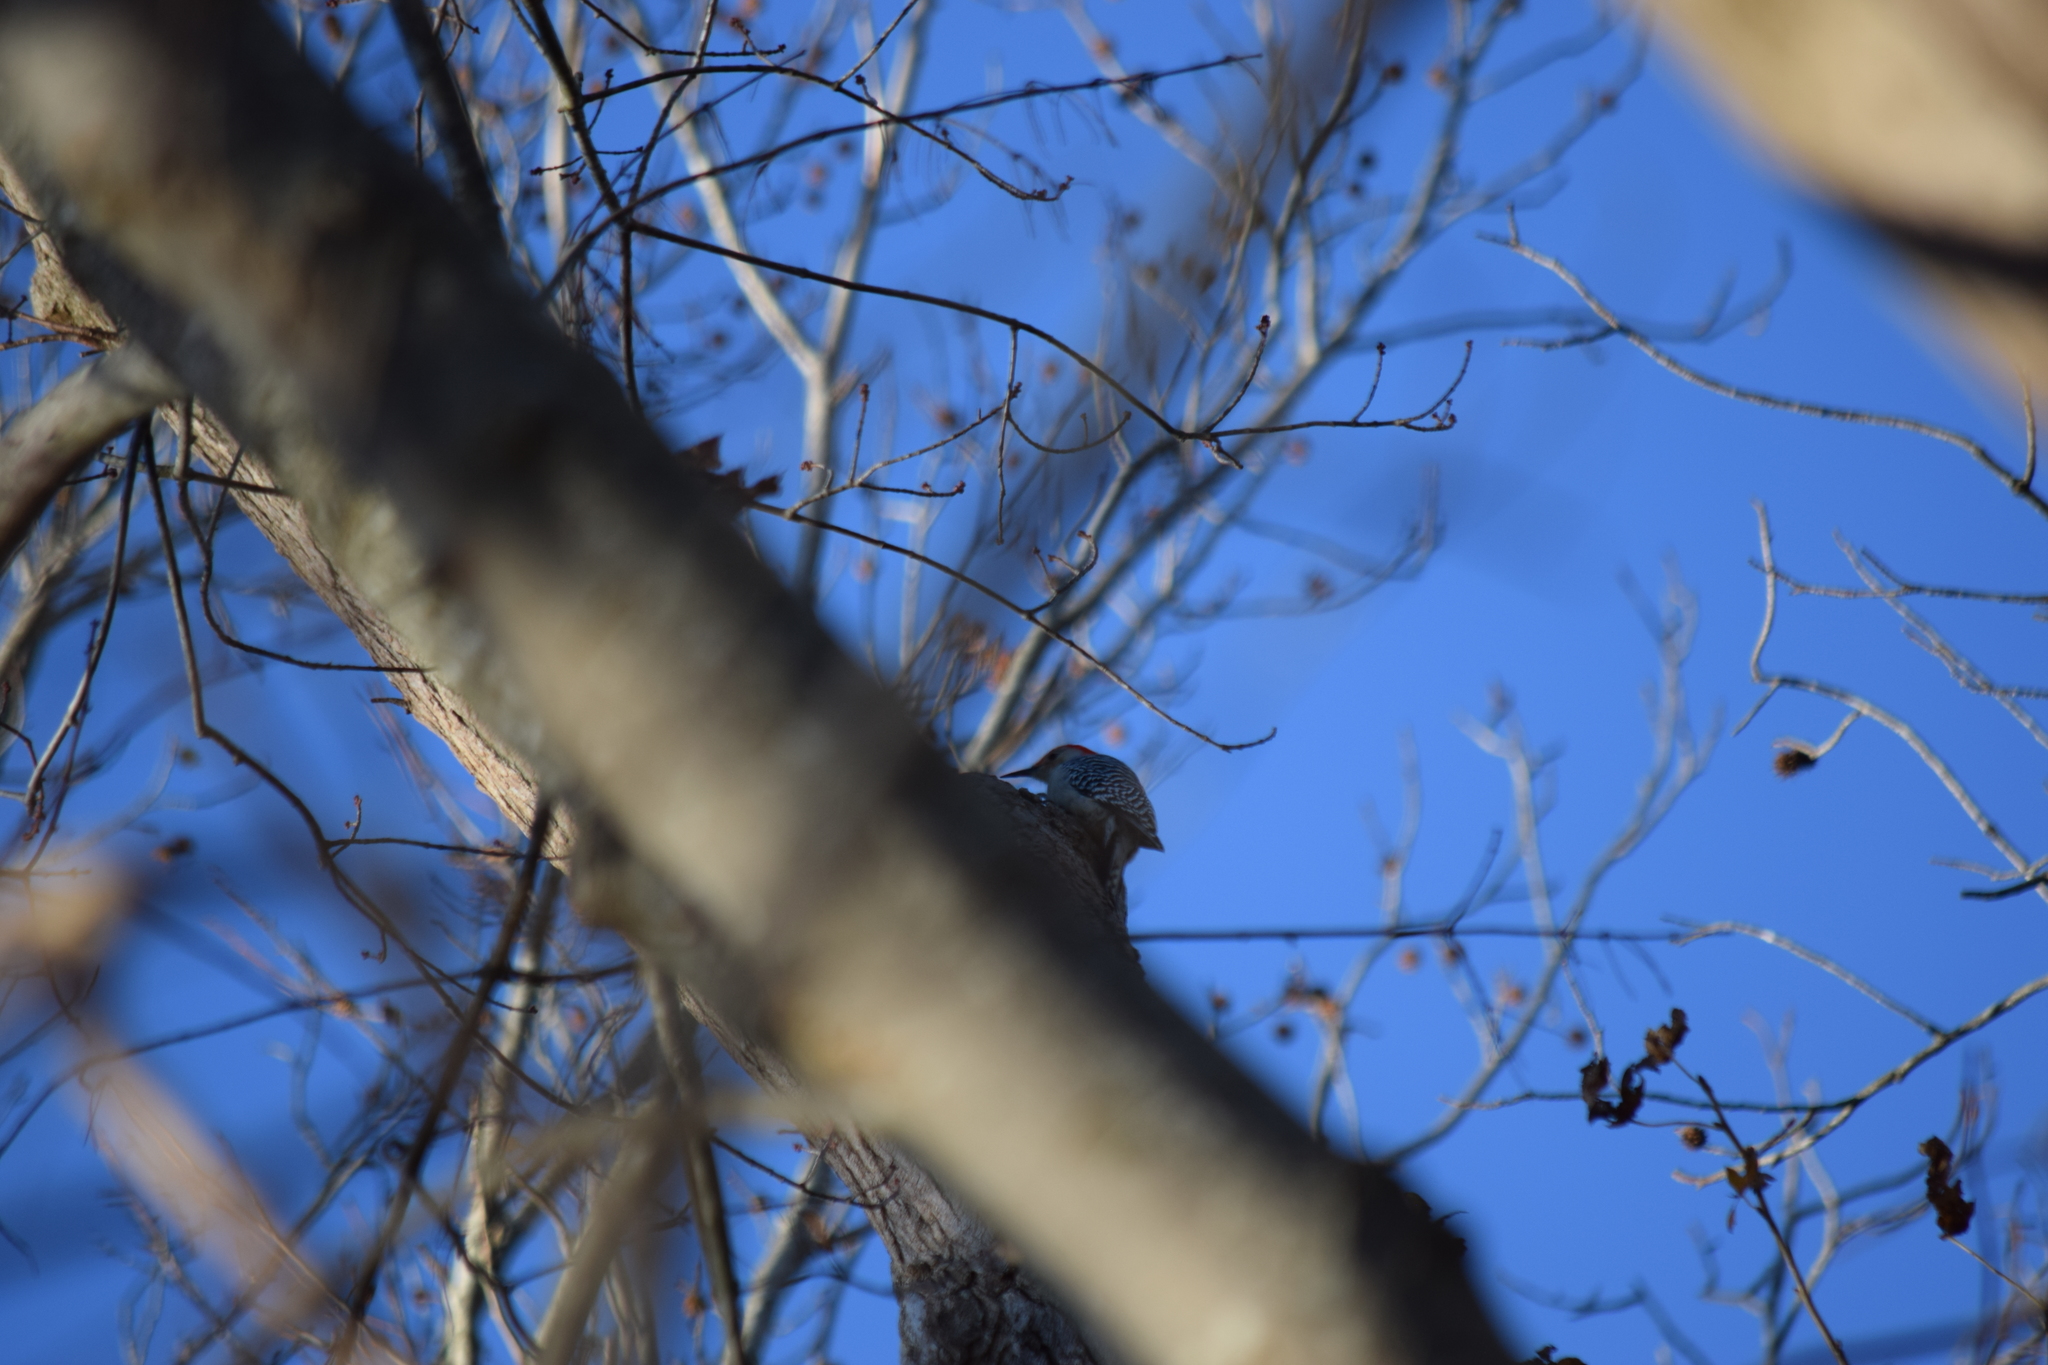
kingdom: Animalia
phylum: Chordata
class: Aves
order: Piciformes
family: Picidae
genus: Melanerpes
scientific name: Melanerpes carolinus
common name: Red-bellied woodpecker
